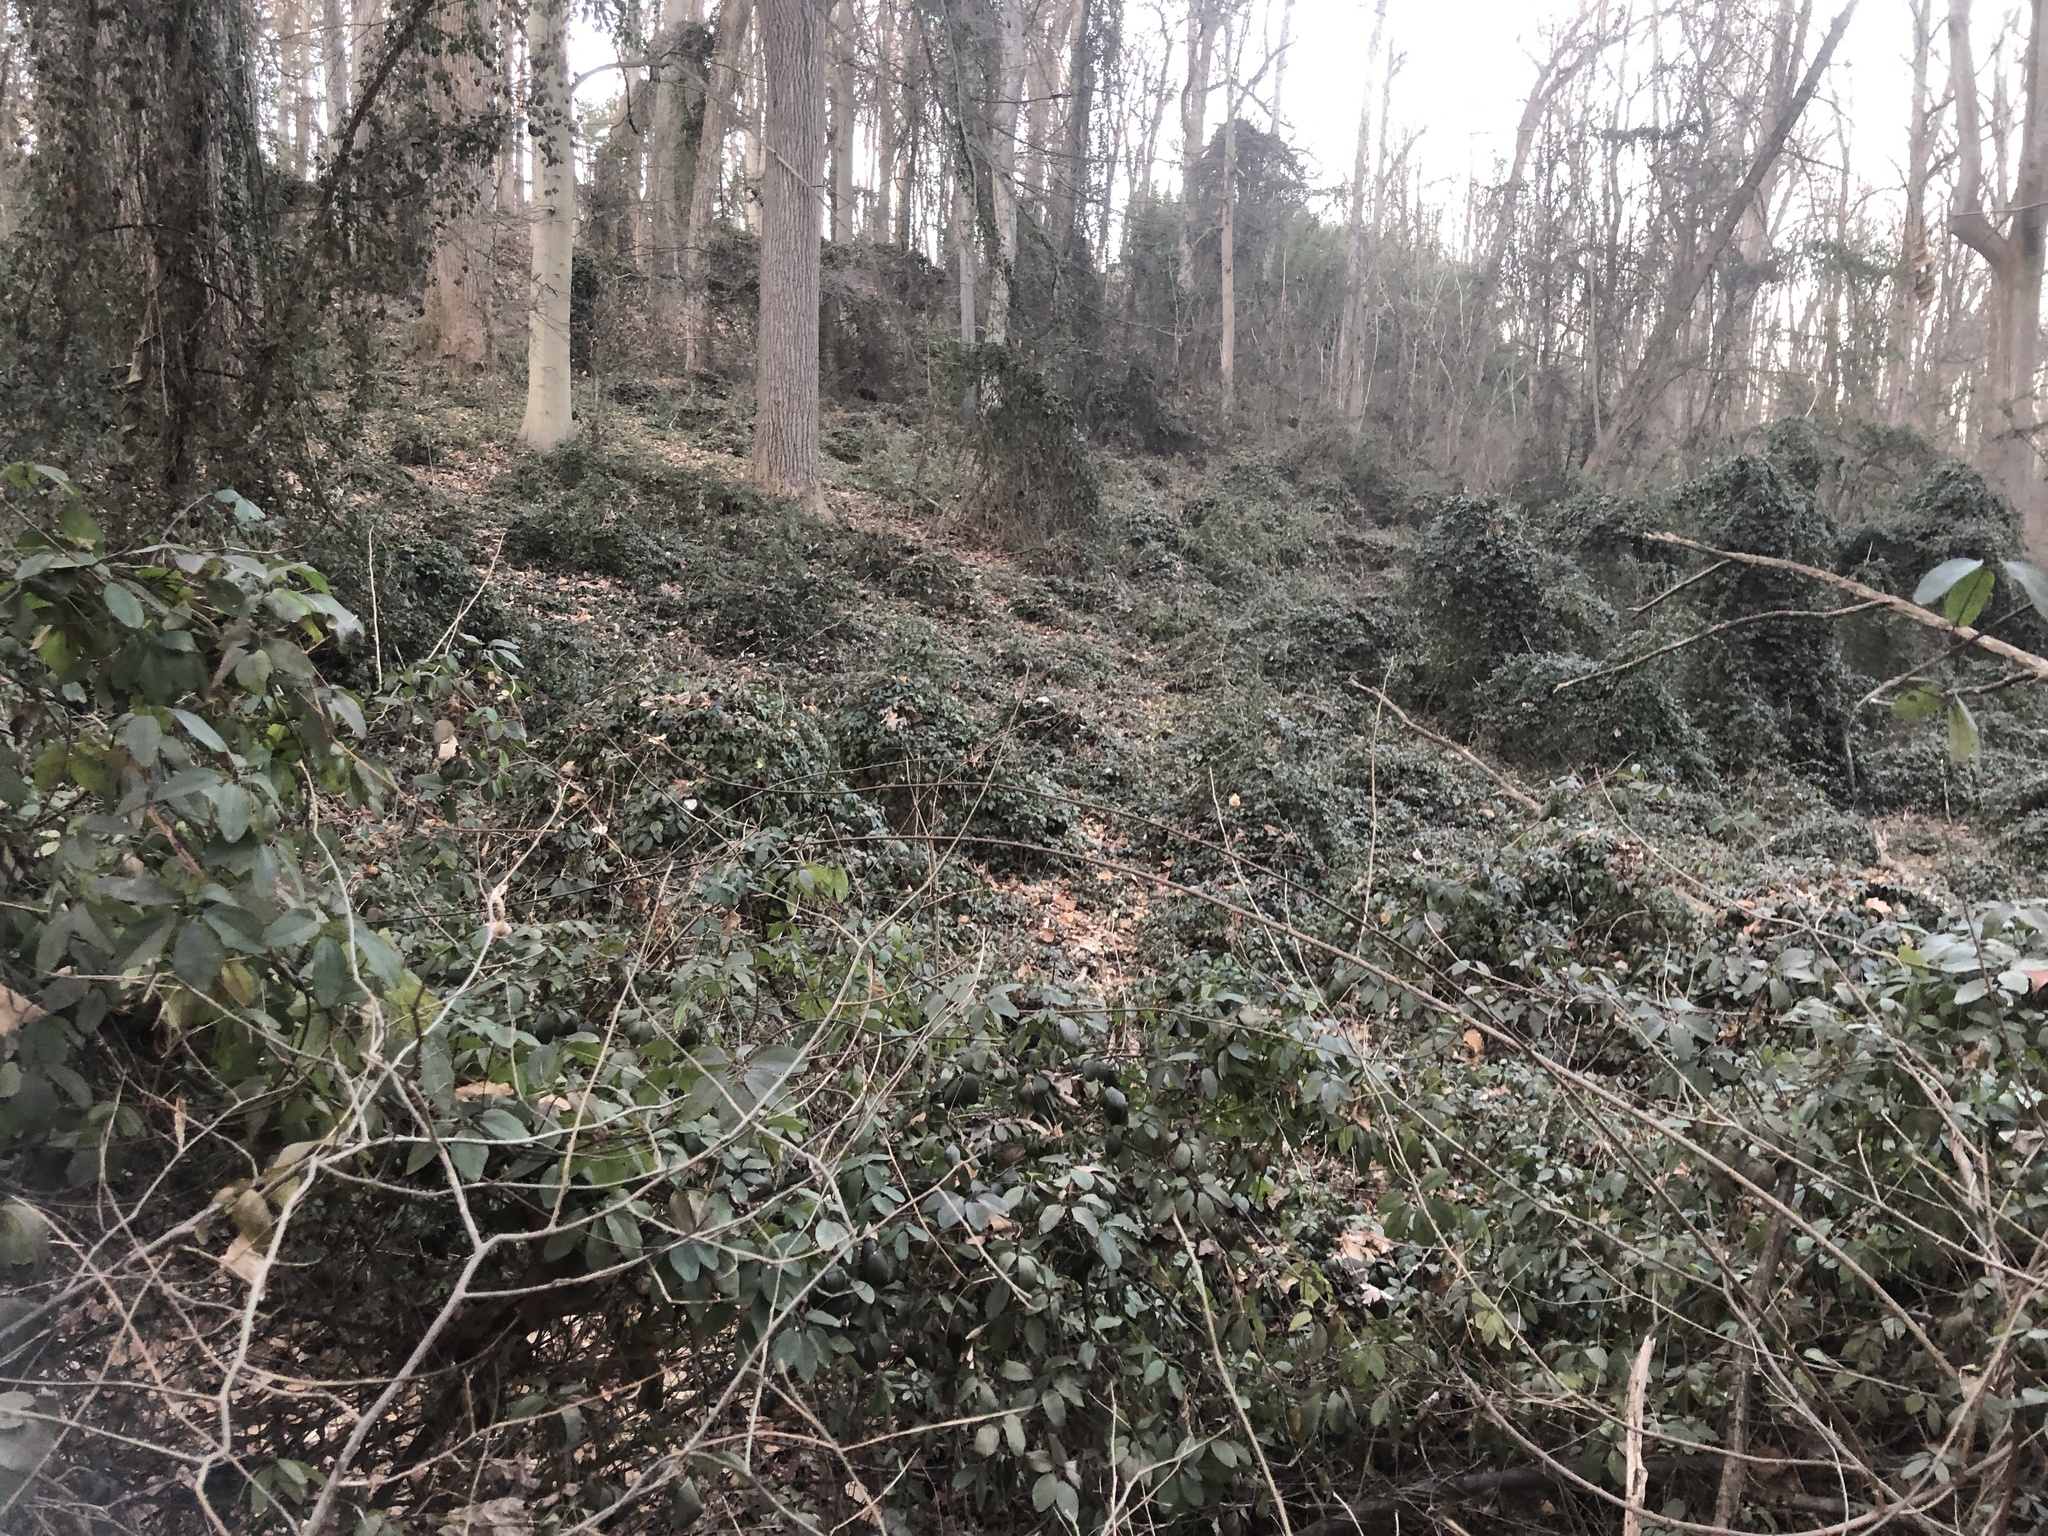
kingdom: Plantae
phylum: Tracheophyta
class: Magnoliopsida
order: Ranunculales
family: Lardizabalaceae
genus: Akebia
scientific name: Akebia quinata
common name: Five-leaf akebia
